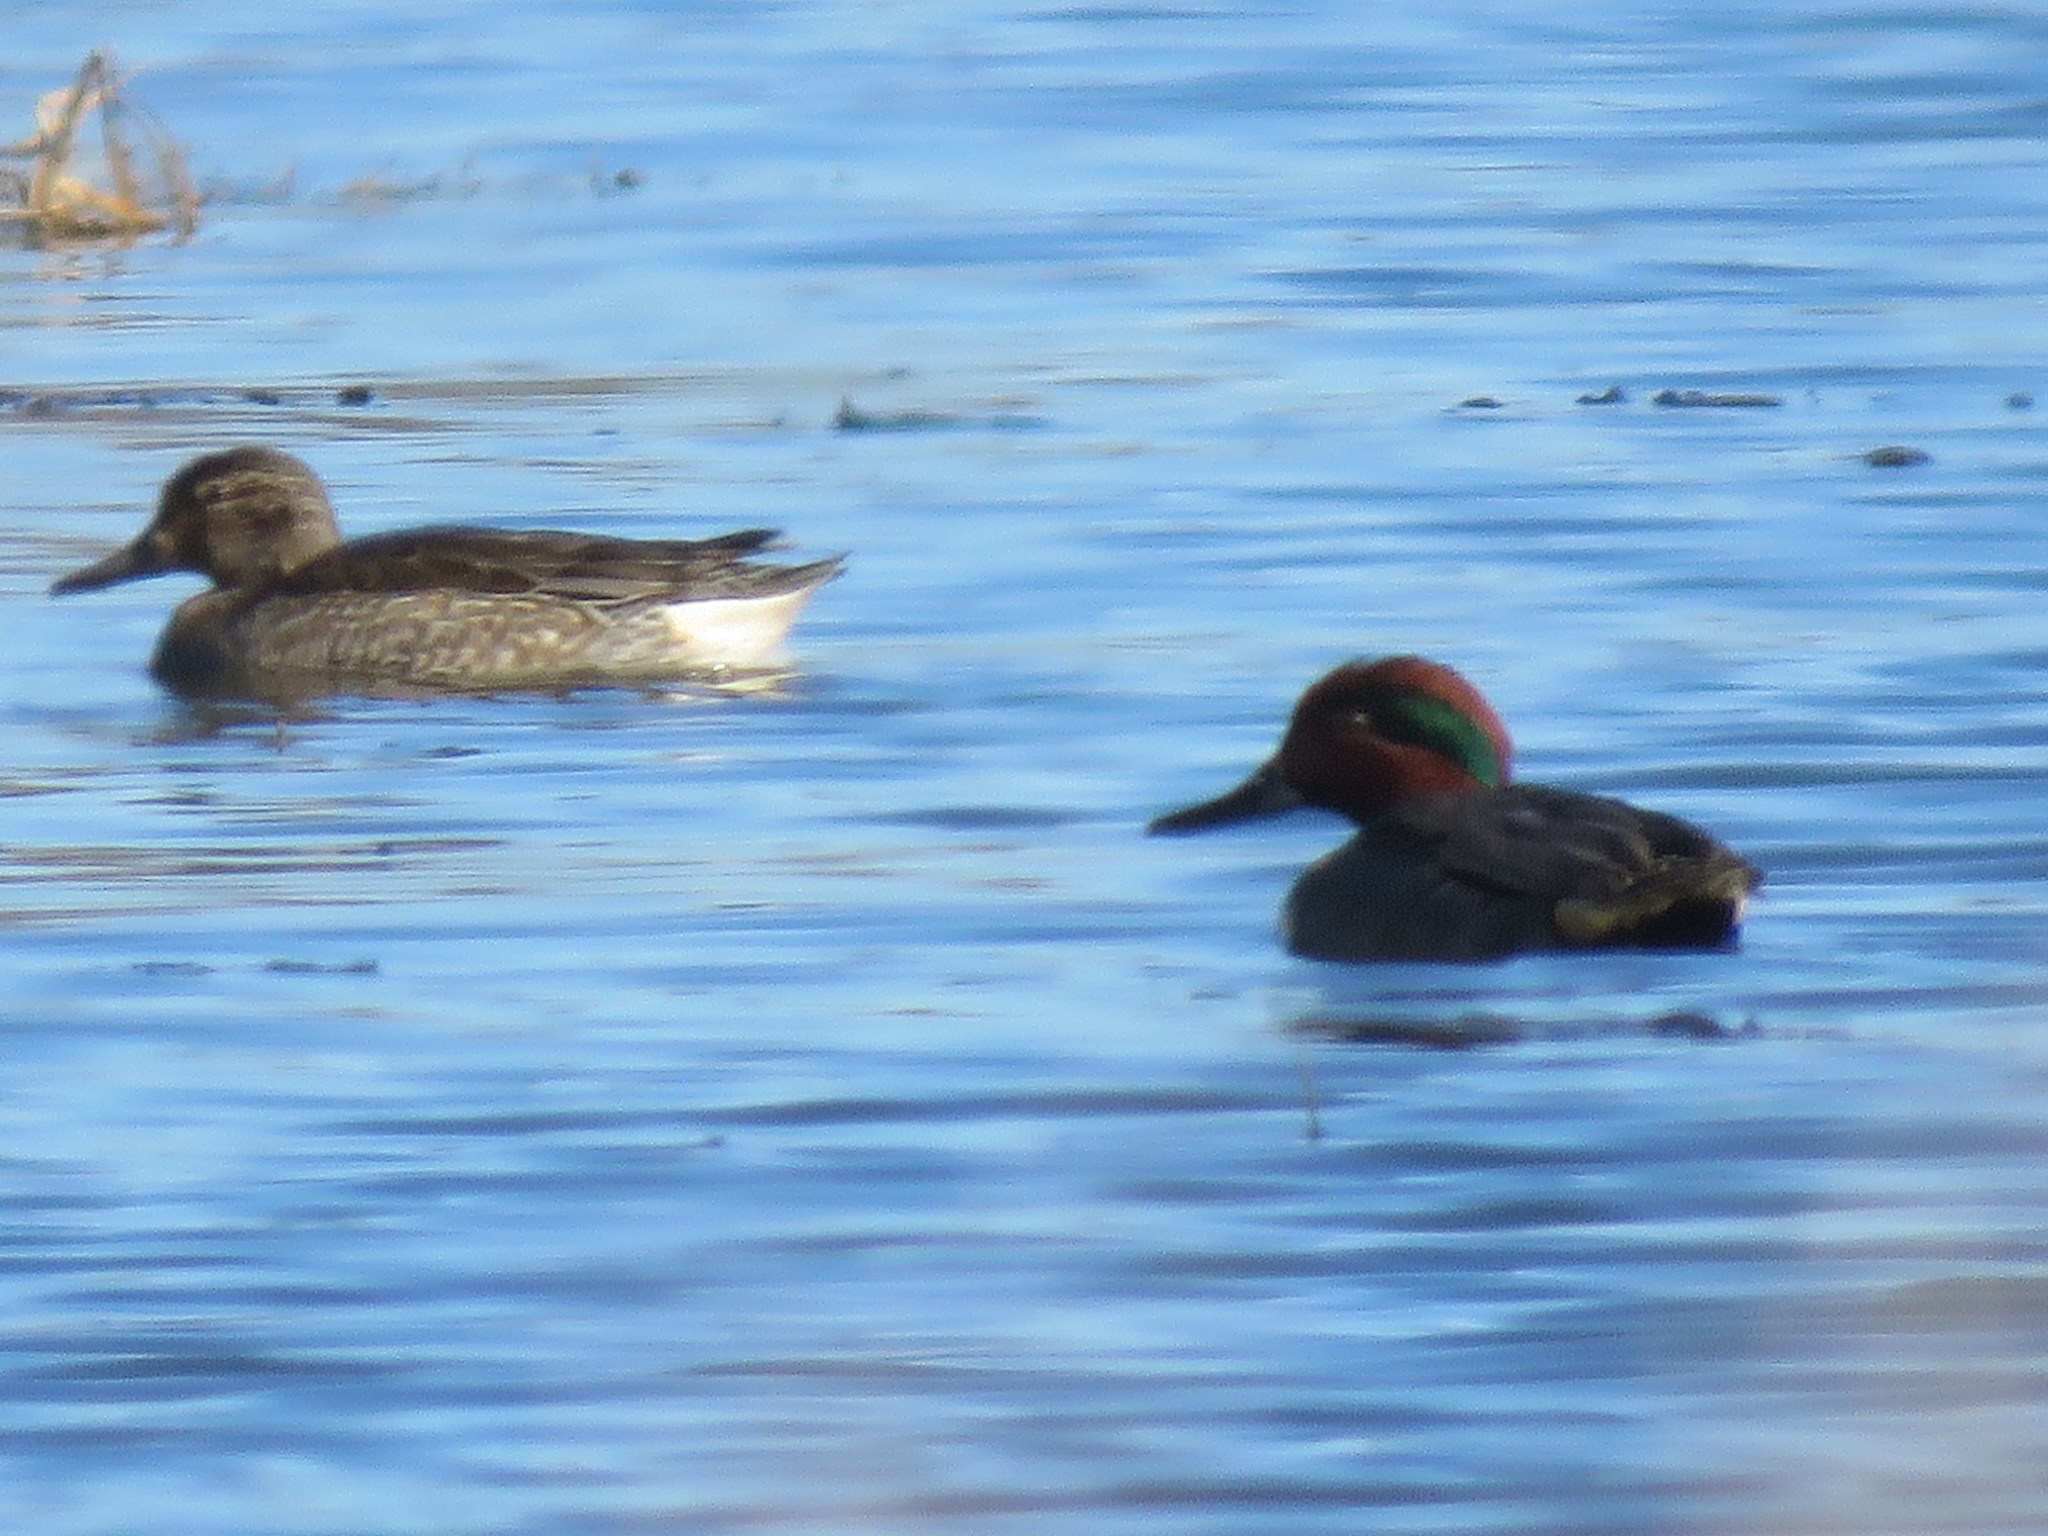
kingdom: Animalia
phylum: Chordata
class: Aves
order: Anseriformes
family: Anatidae
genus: Anas
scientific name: Anas crecca
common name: Eurasian teal
